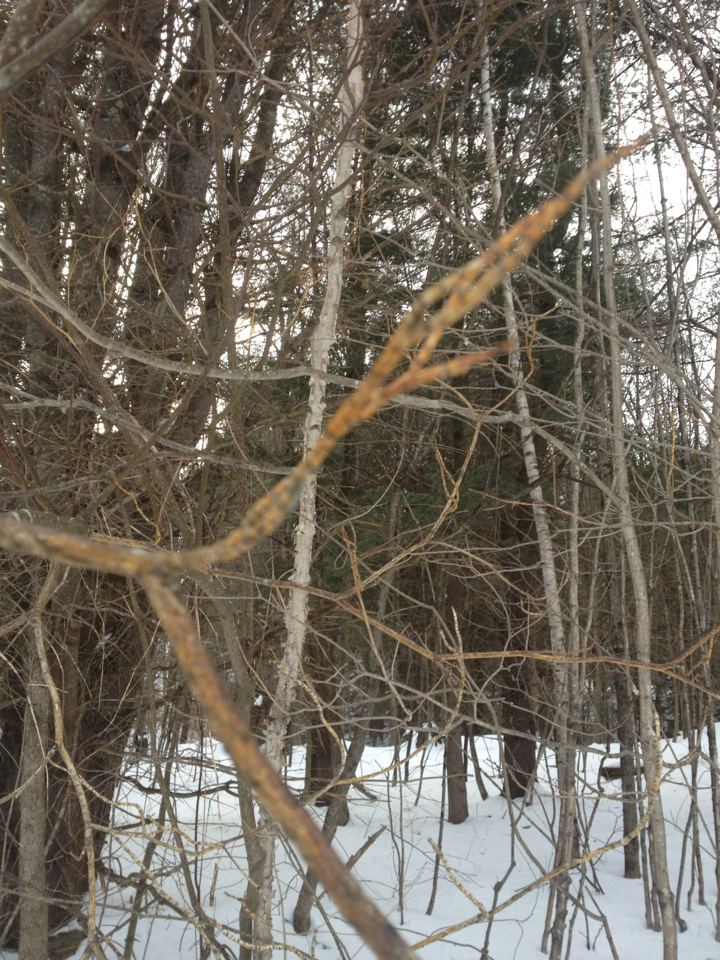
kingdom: Fungi
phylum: Ascomycota
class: Sordariomycetes
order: Diaporthales
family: Cryphonectriaceae
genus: Aurantioporthe
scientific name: Aurantioporthe corni
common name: Dogwood golden canker
